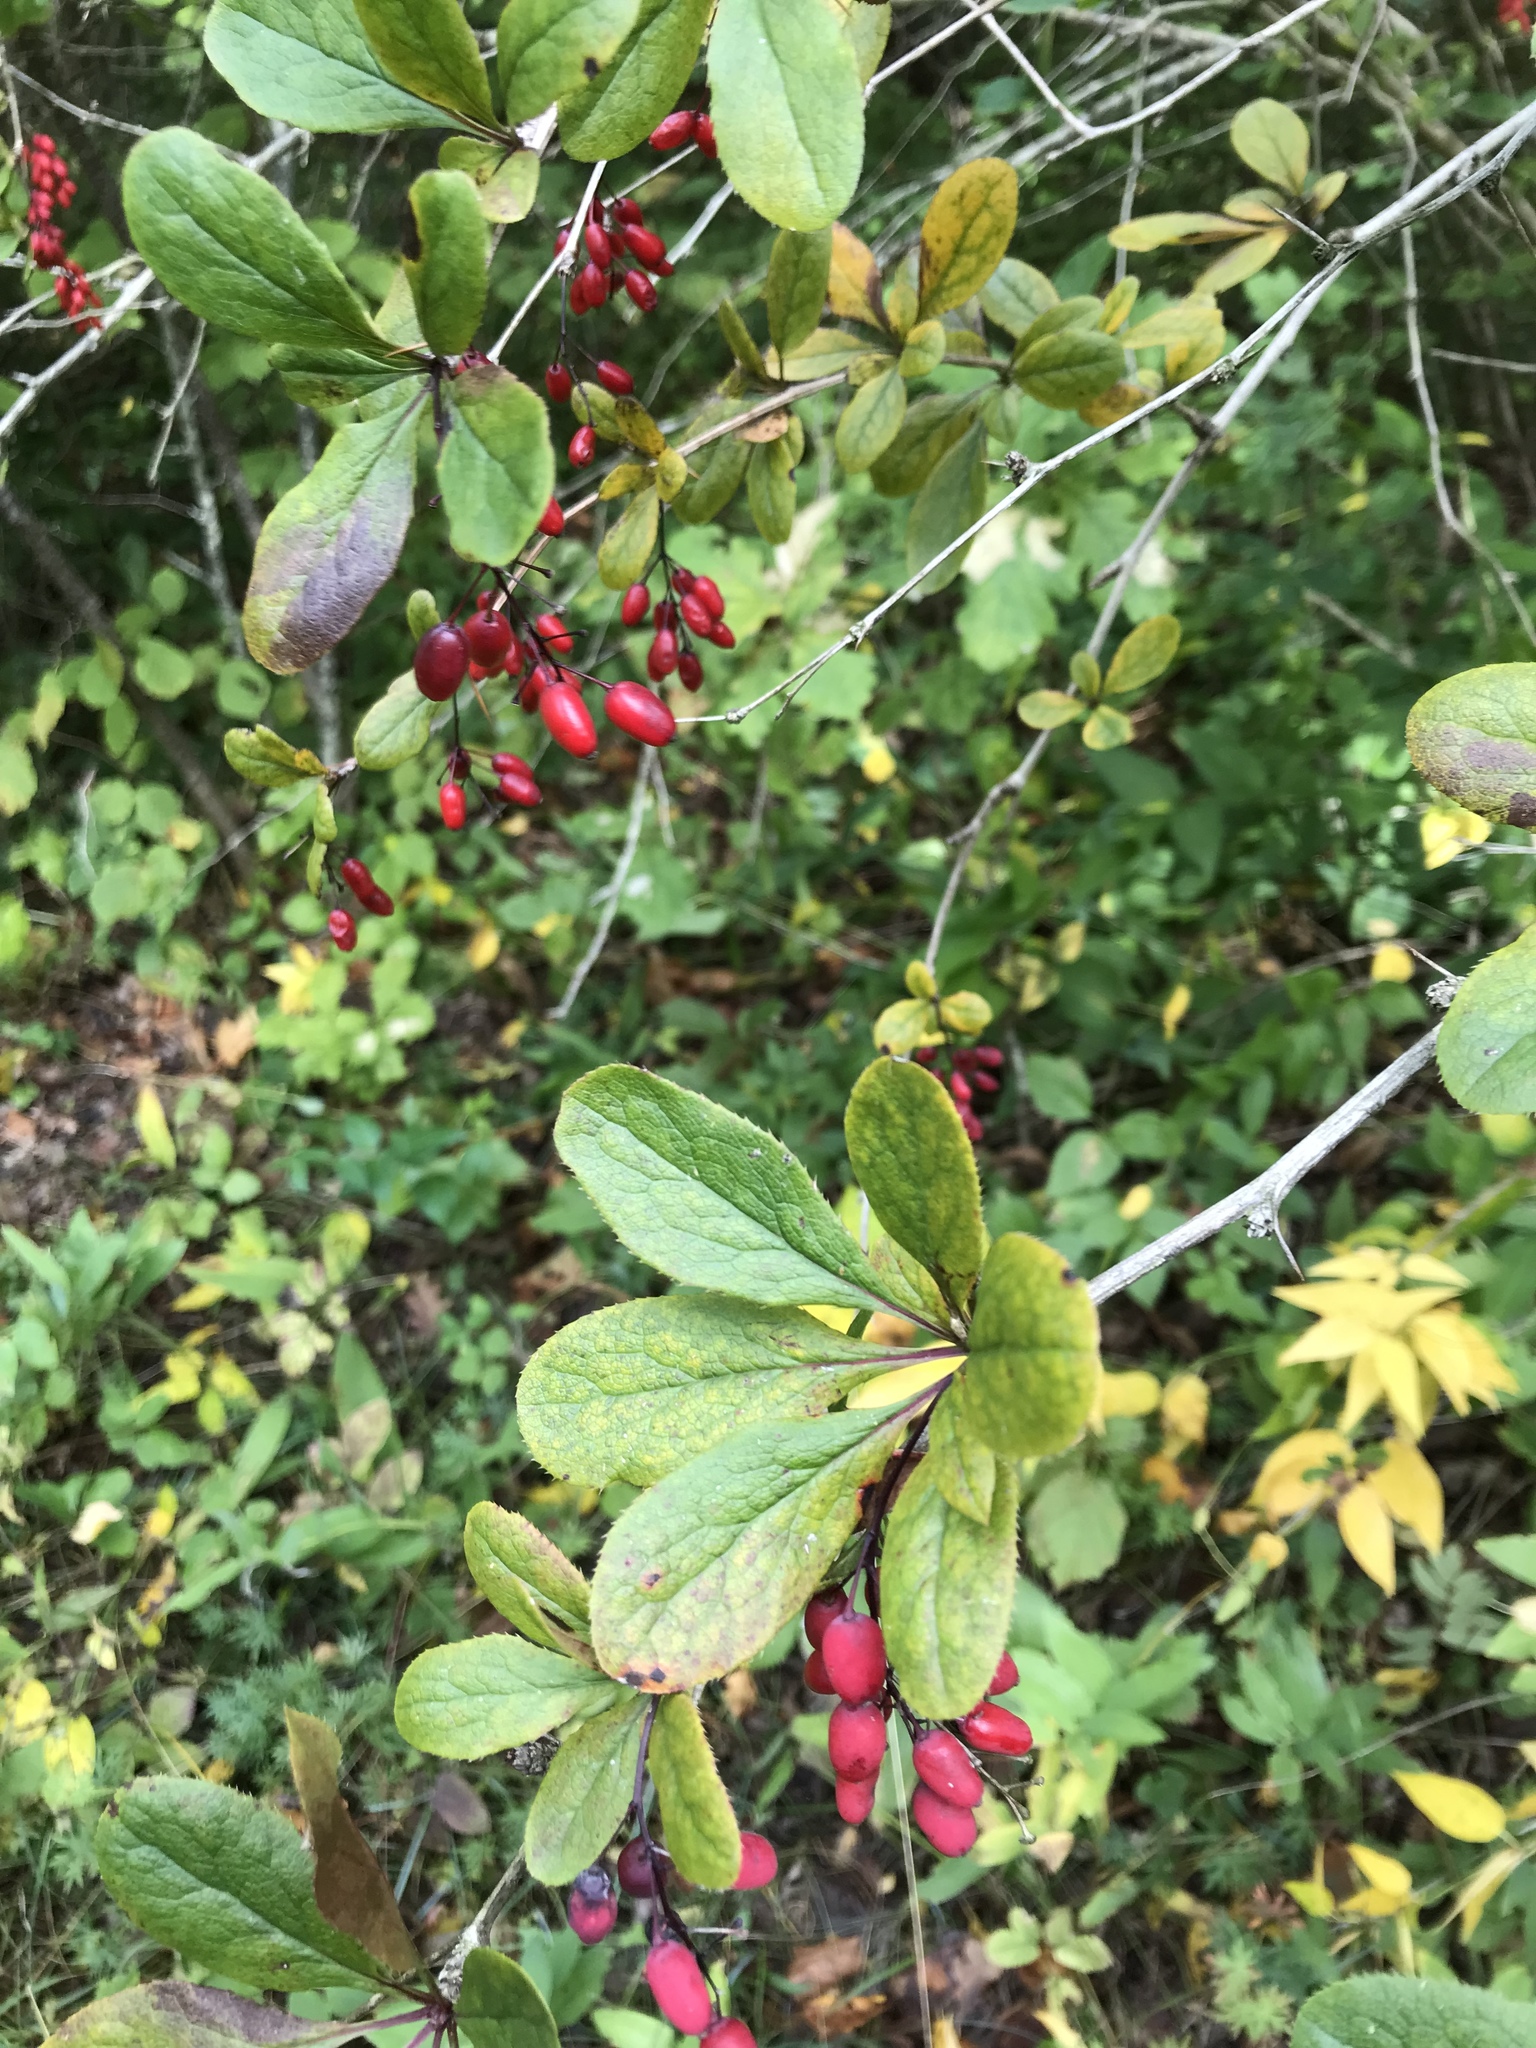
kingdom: Plantae
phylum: Tracheophyta
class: Magnoliopsida
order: Ranunculales
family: Berberidaceae
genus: Berberis
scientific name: Berberis vulgaris
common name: Barberry
